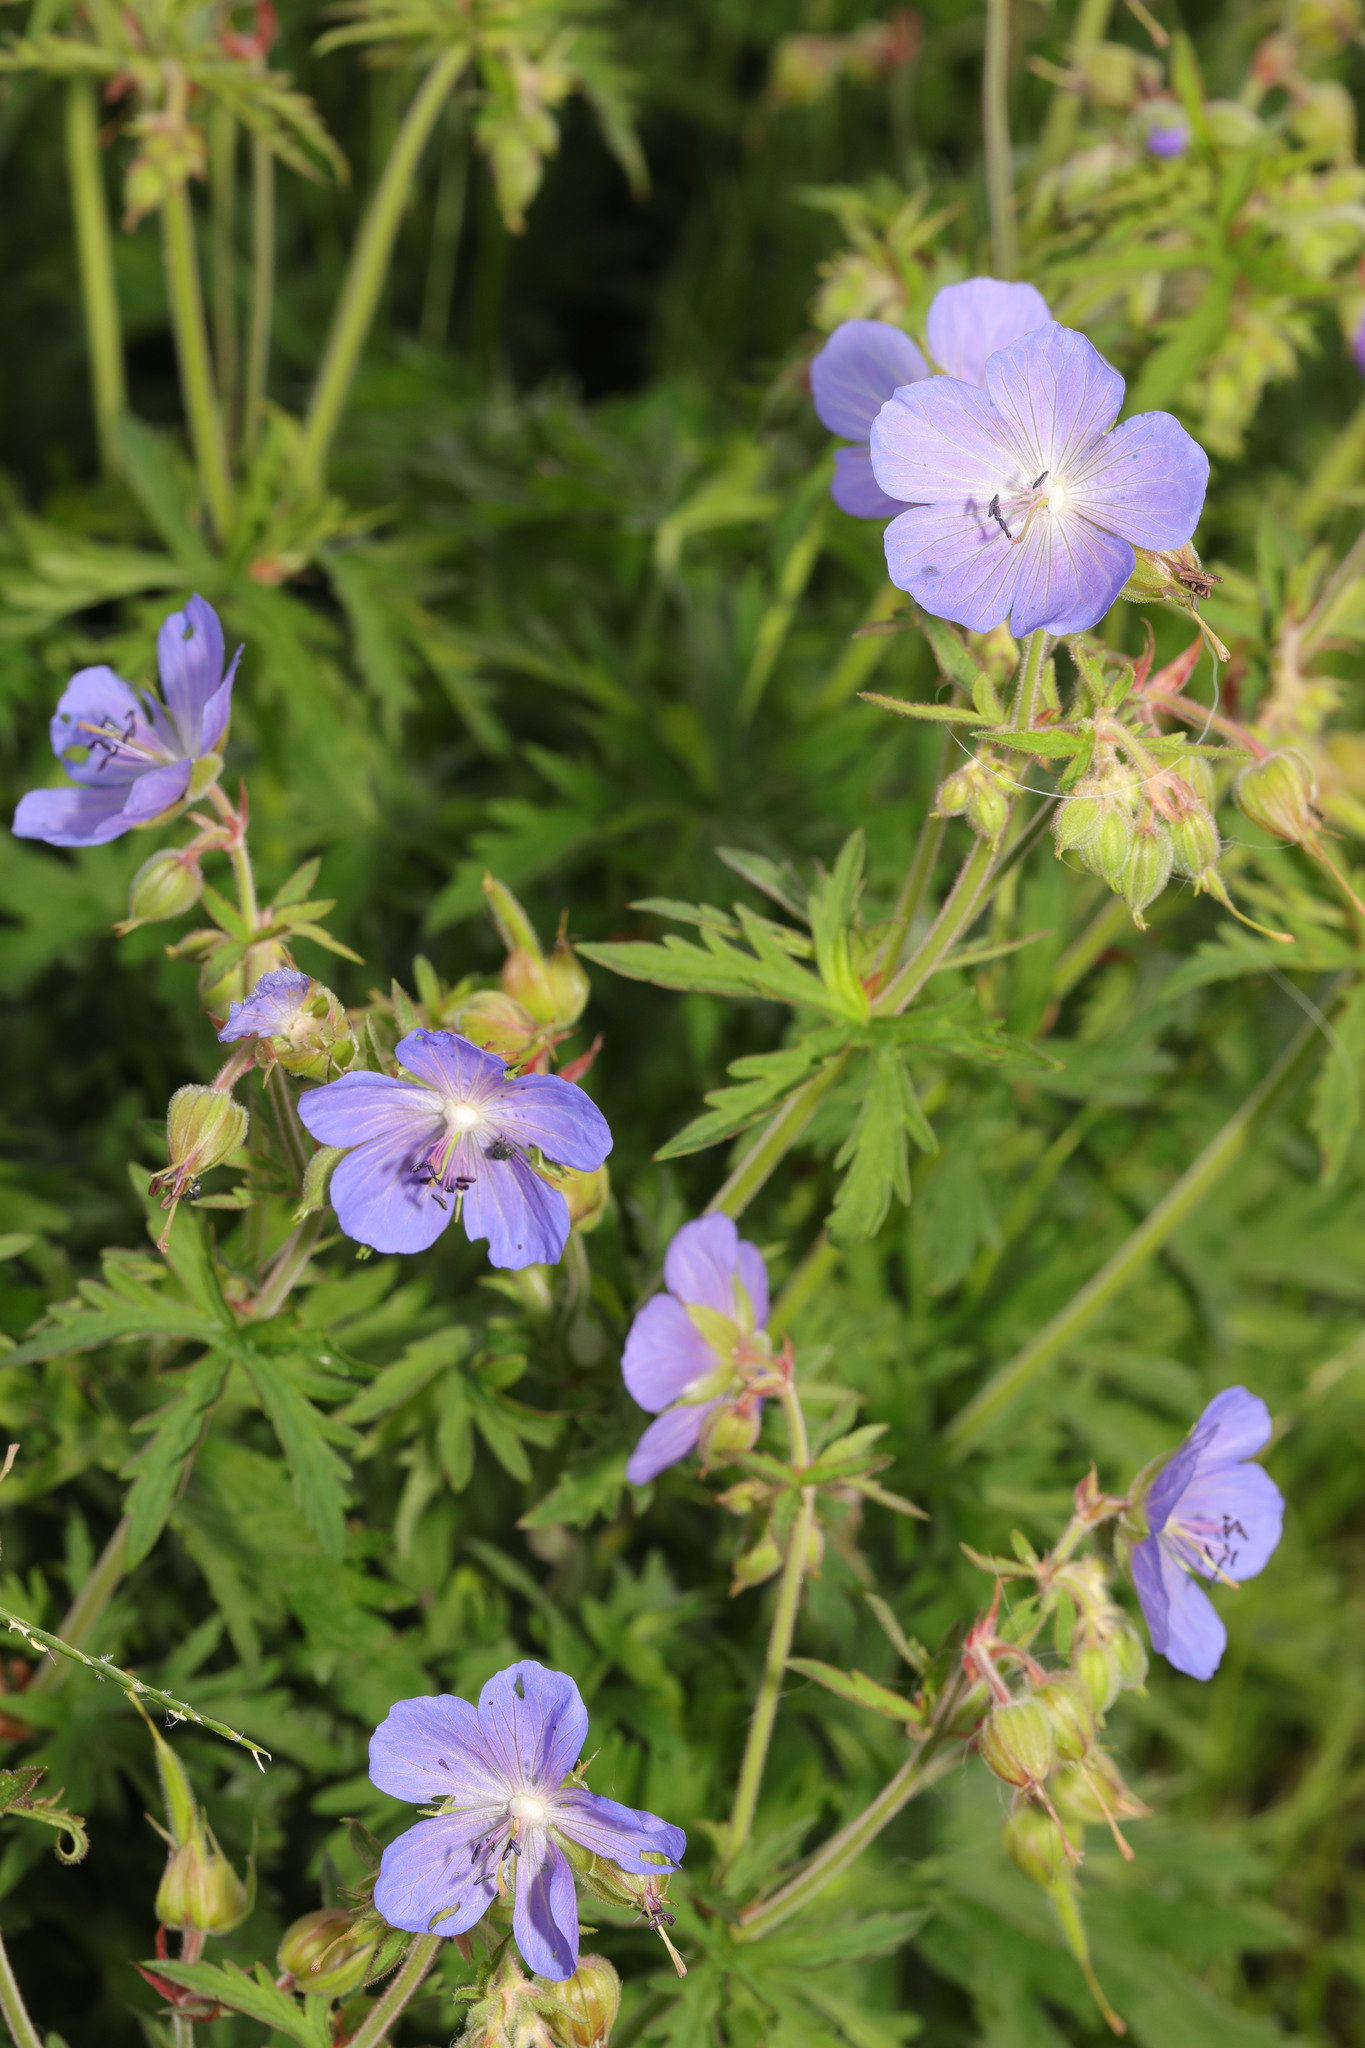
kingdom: Plantae
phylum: Tracheophyta
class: Magnoliopsida
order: Geraniales
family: Geraniaceae
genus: Geranium
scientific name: Geranium pratense
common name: Meadow crane's-bill
